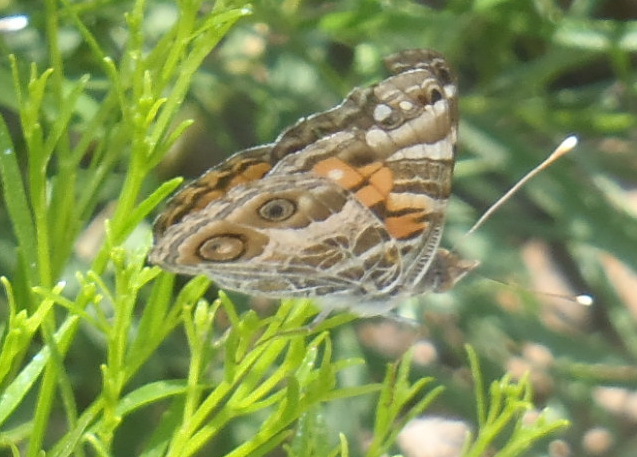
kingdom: Animalia
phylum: Arthropoda
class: Insecta
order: Lepidoptera
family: Nymphalidae
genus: Vanessa
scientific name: Vanessa virginiensis
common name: American lady
